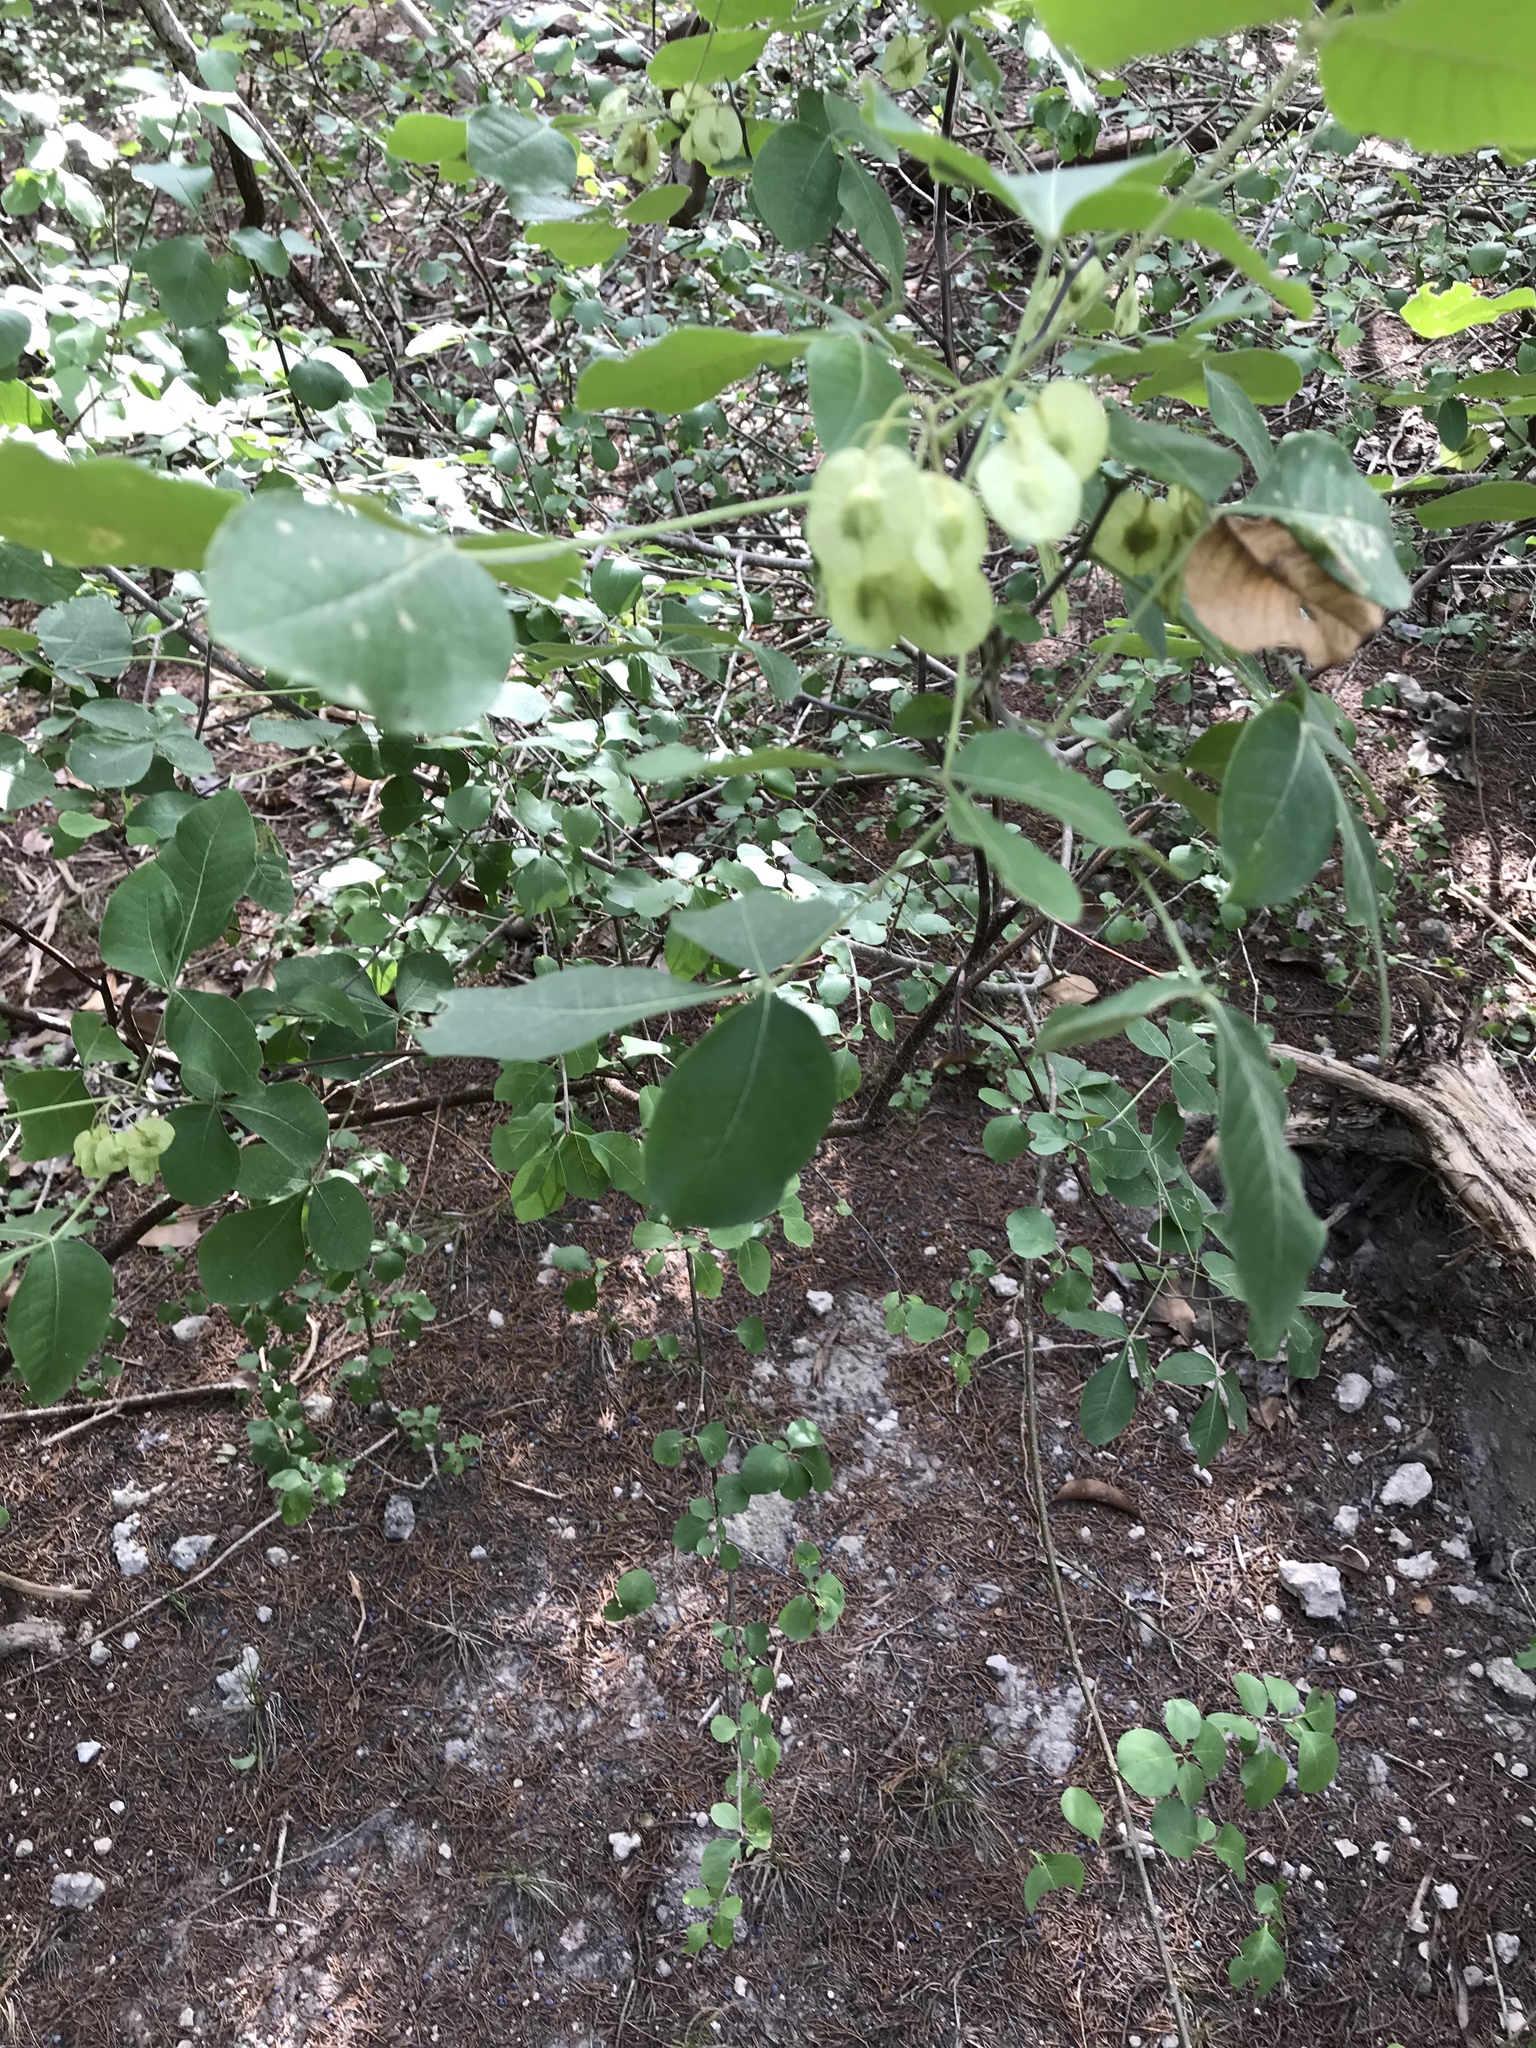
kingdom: Plantae
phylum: Tracheophyta
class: Magnoliopsida
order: Sapindales
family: Rutaceae
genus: Ptelea
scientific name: Ptelea trifoliata
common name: Common hop-tree
